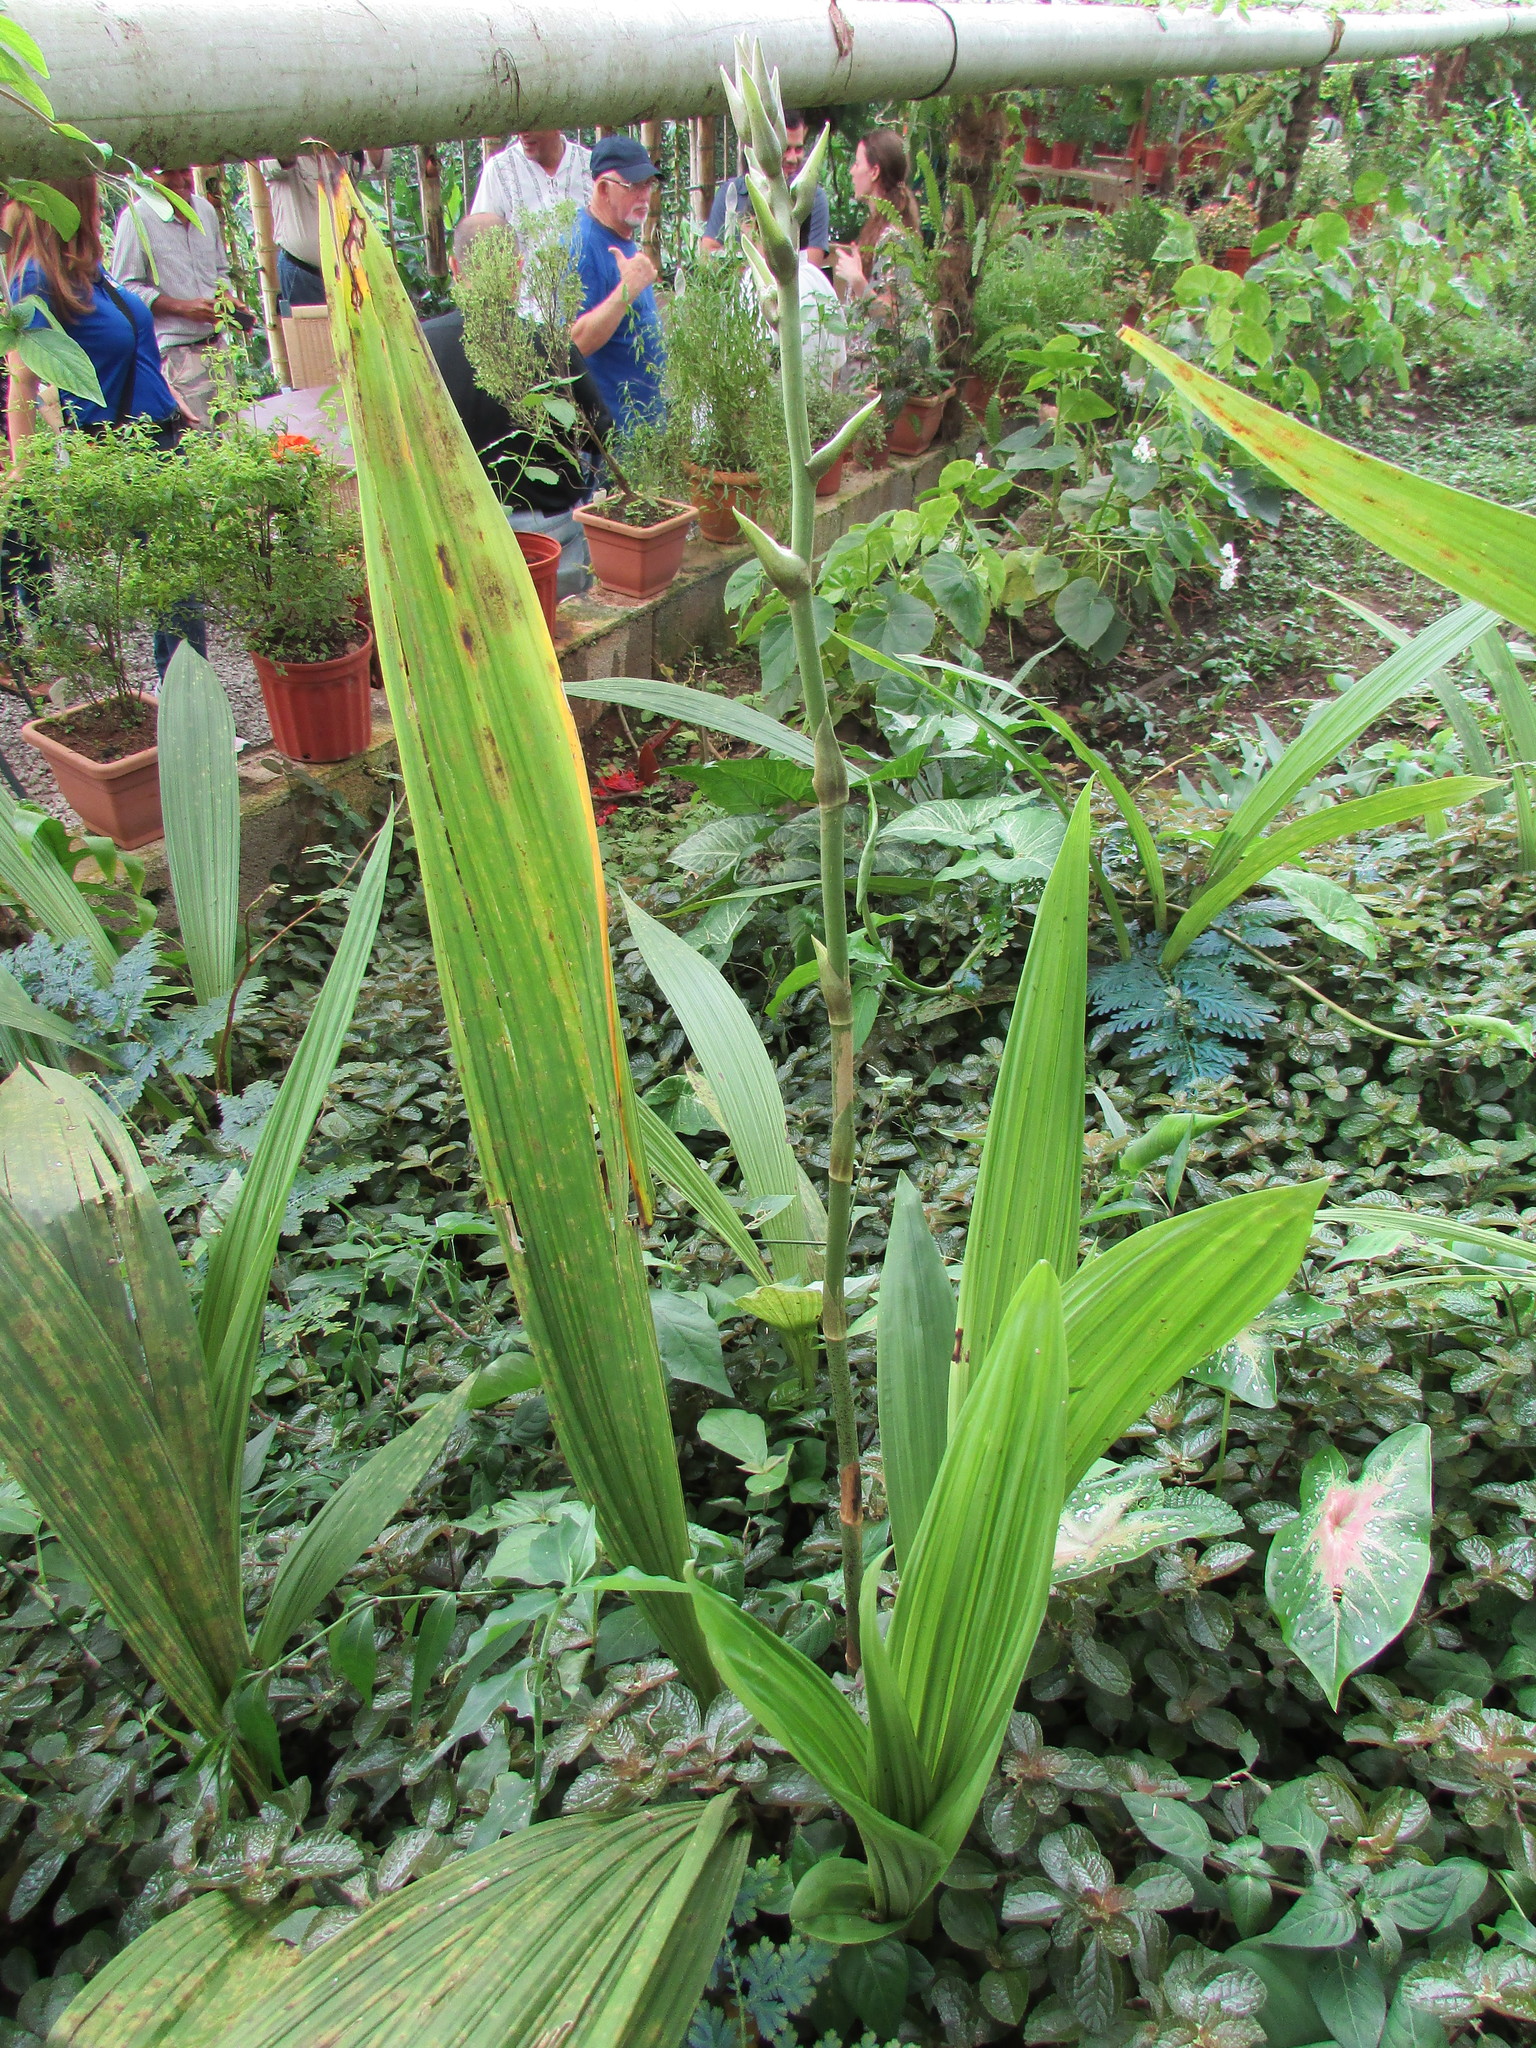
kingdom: Plantae
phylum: Tracheophyta
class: Liliopsida
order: Asparagales
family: Orchidaceae
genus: Peristeria
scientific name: Peristeria elata
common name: Dove orchid
